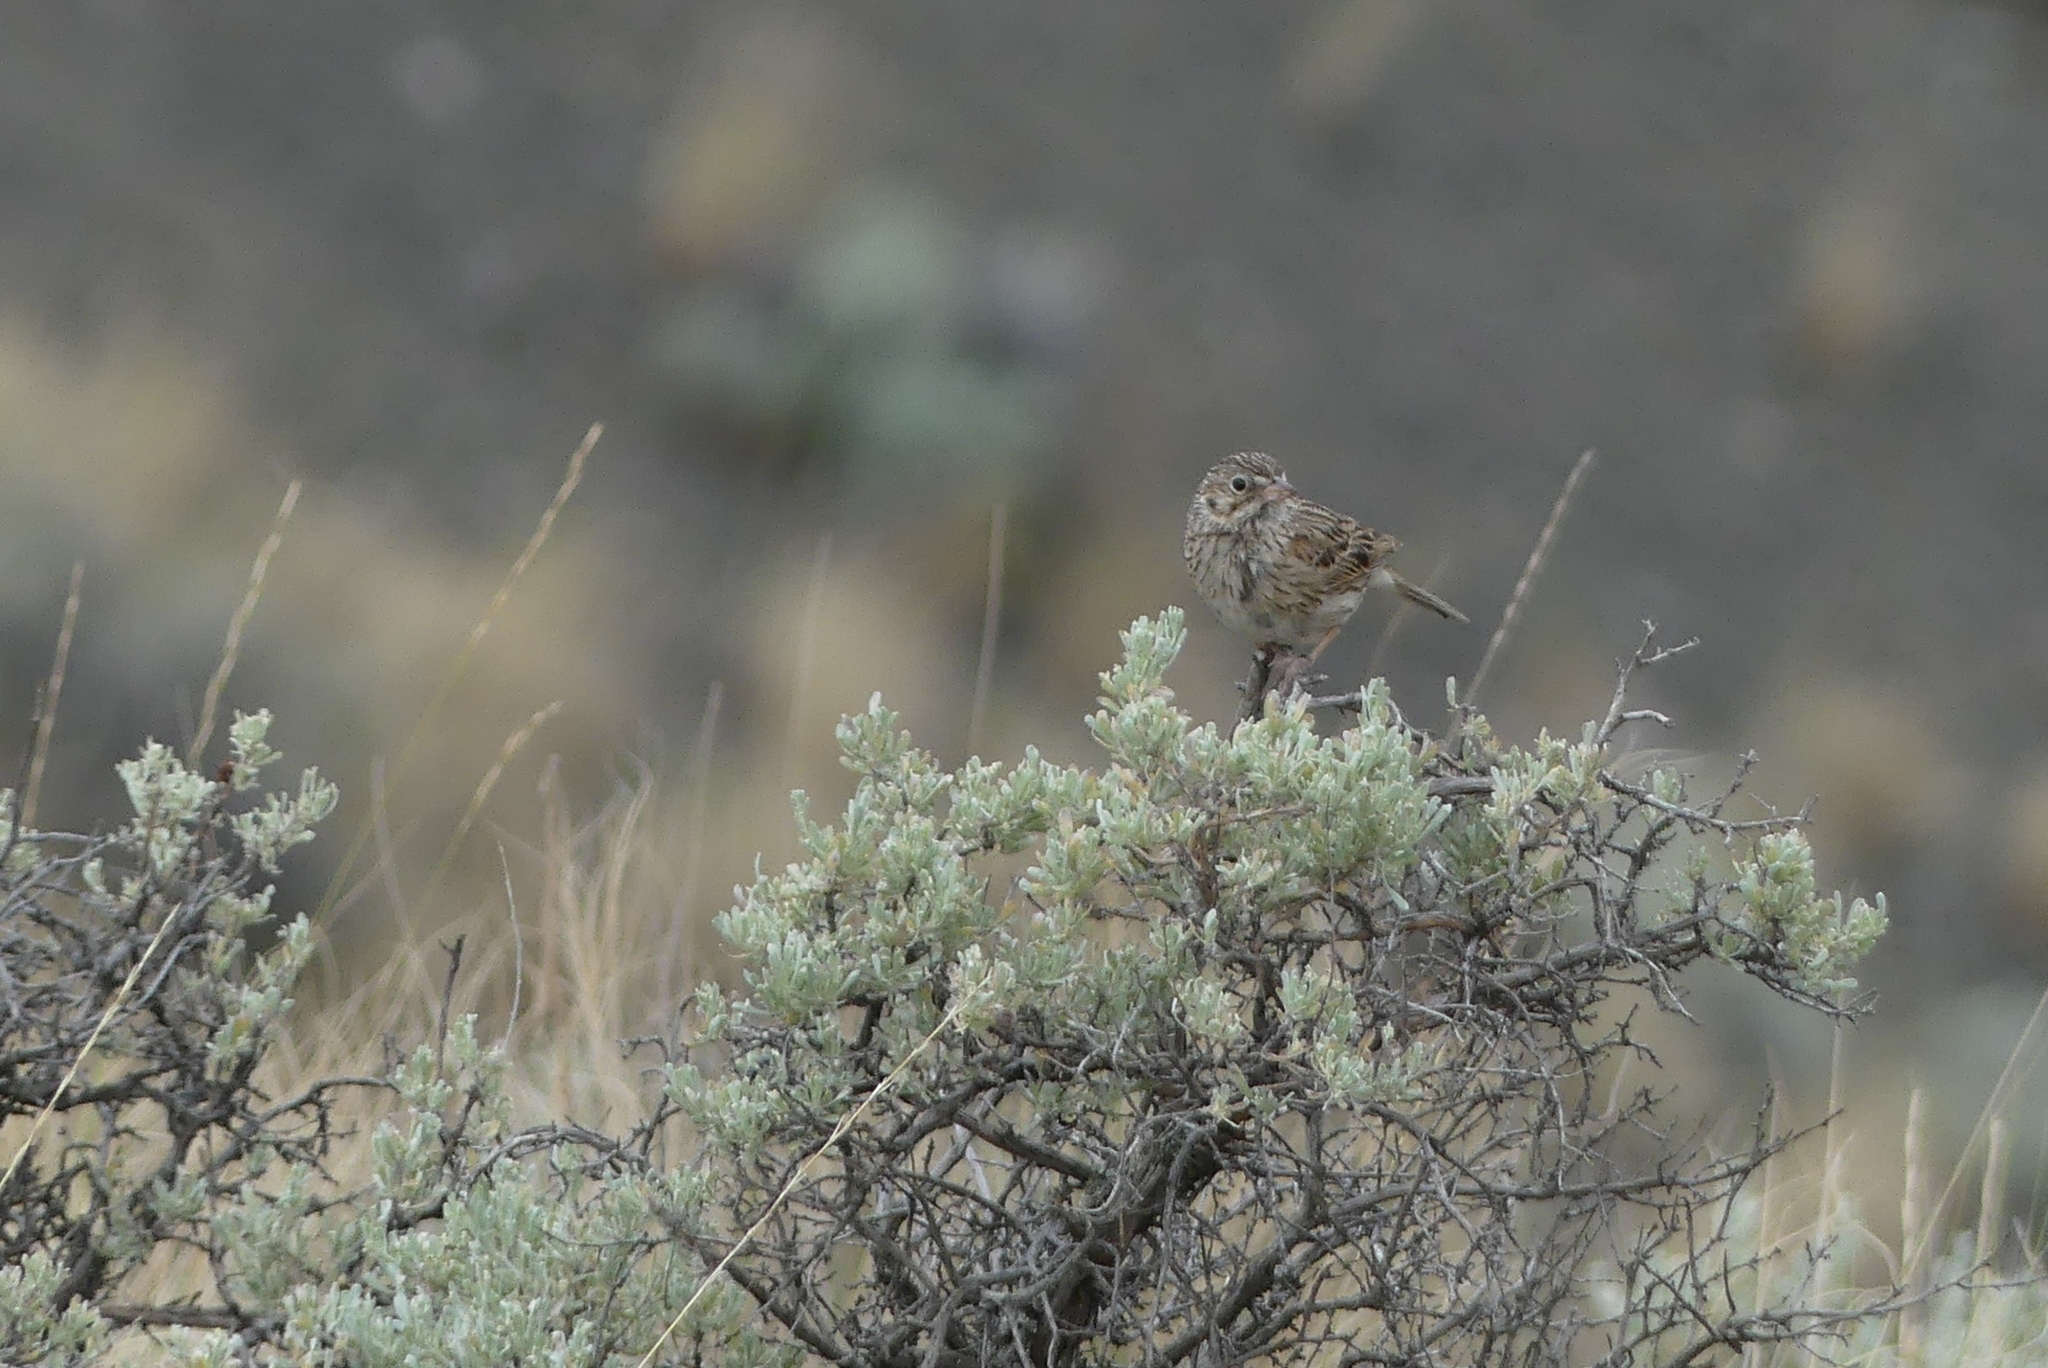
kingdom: Animalia
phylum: Chordata
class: Aves
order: Passeriformes
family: Passerellidae
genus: Pooecetes
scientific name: Pooecetes gramineus
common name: Vesper sparrow
